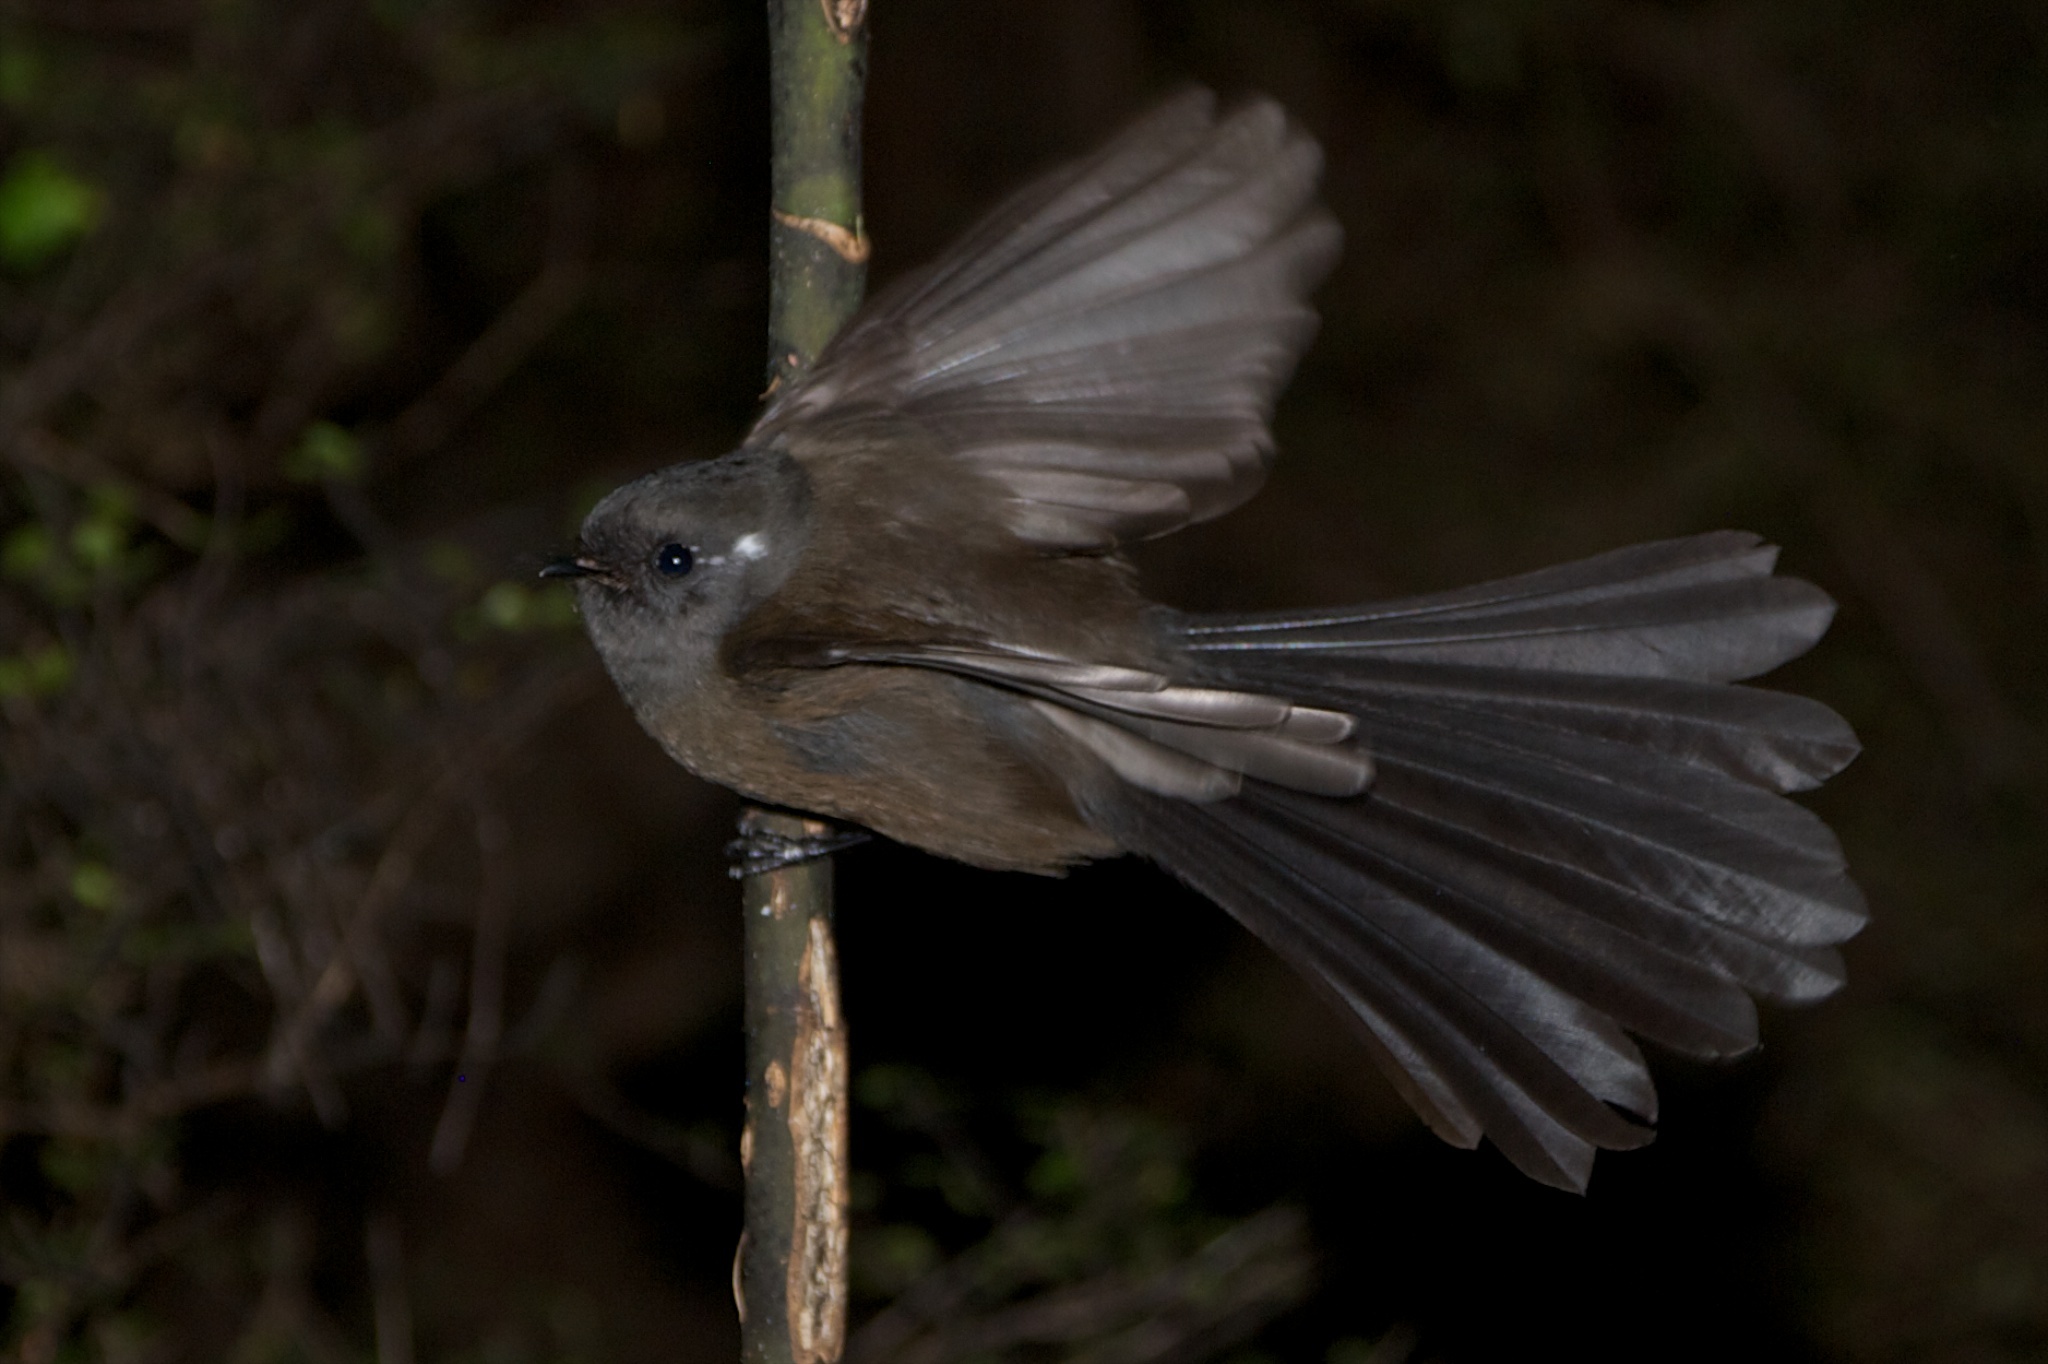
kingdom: Animalia
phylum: Chordata
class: Aves
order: Passeriformes
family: Rhipiduridae
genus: Rhipidura
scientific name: Rhipidura fuliginosa
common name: New zealand fantail
